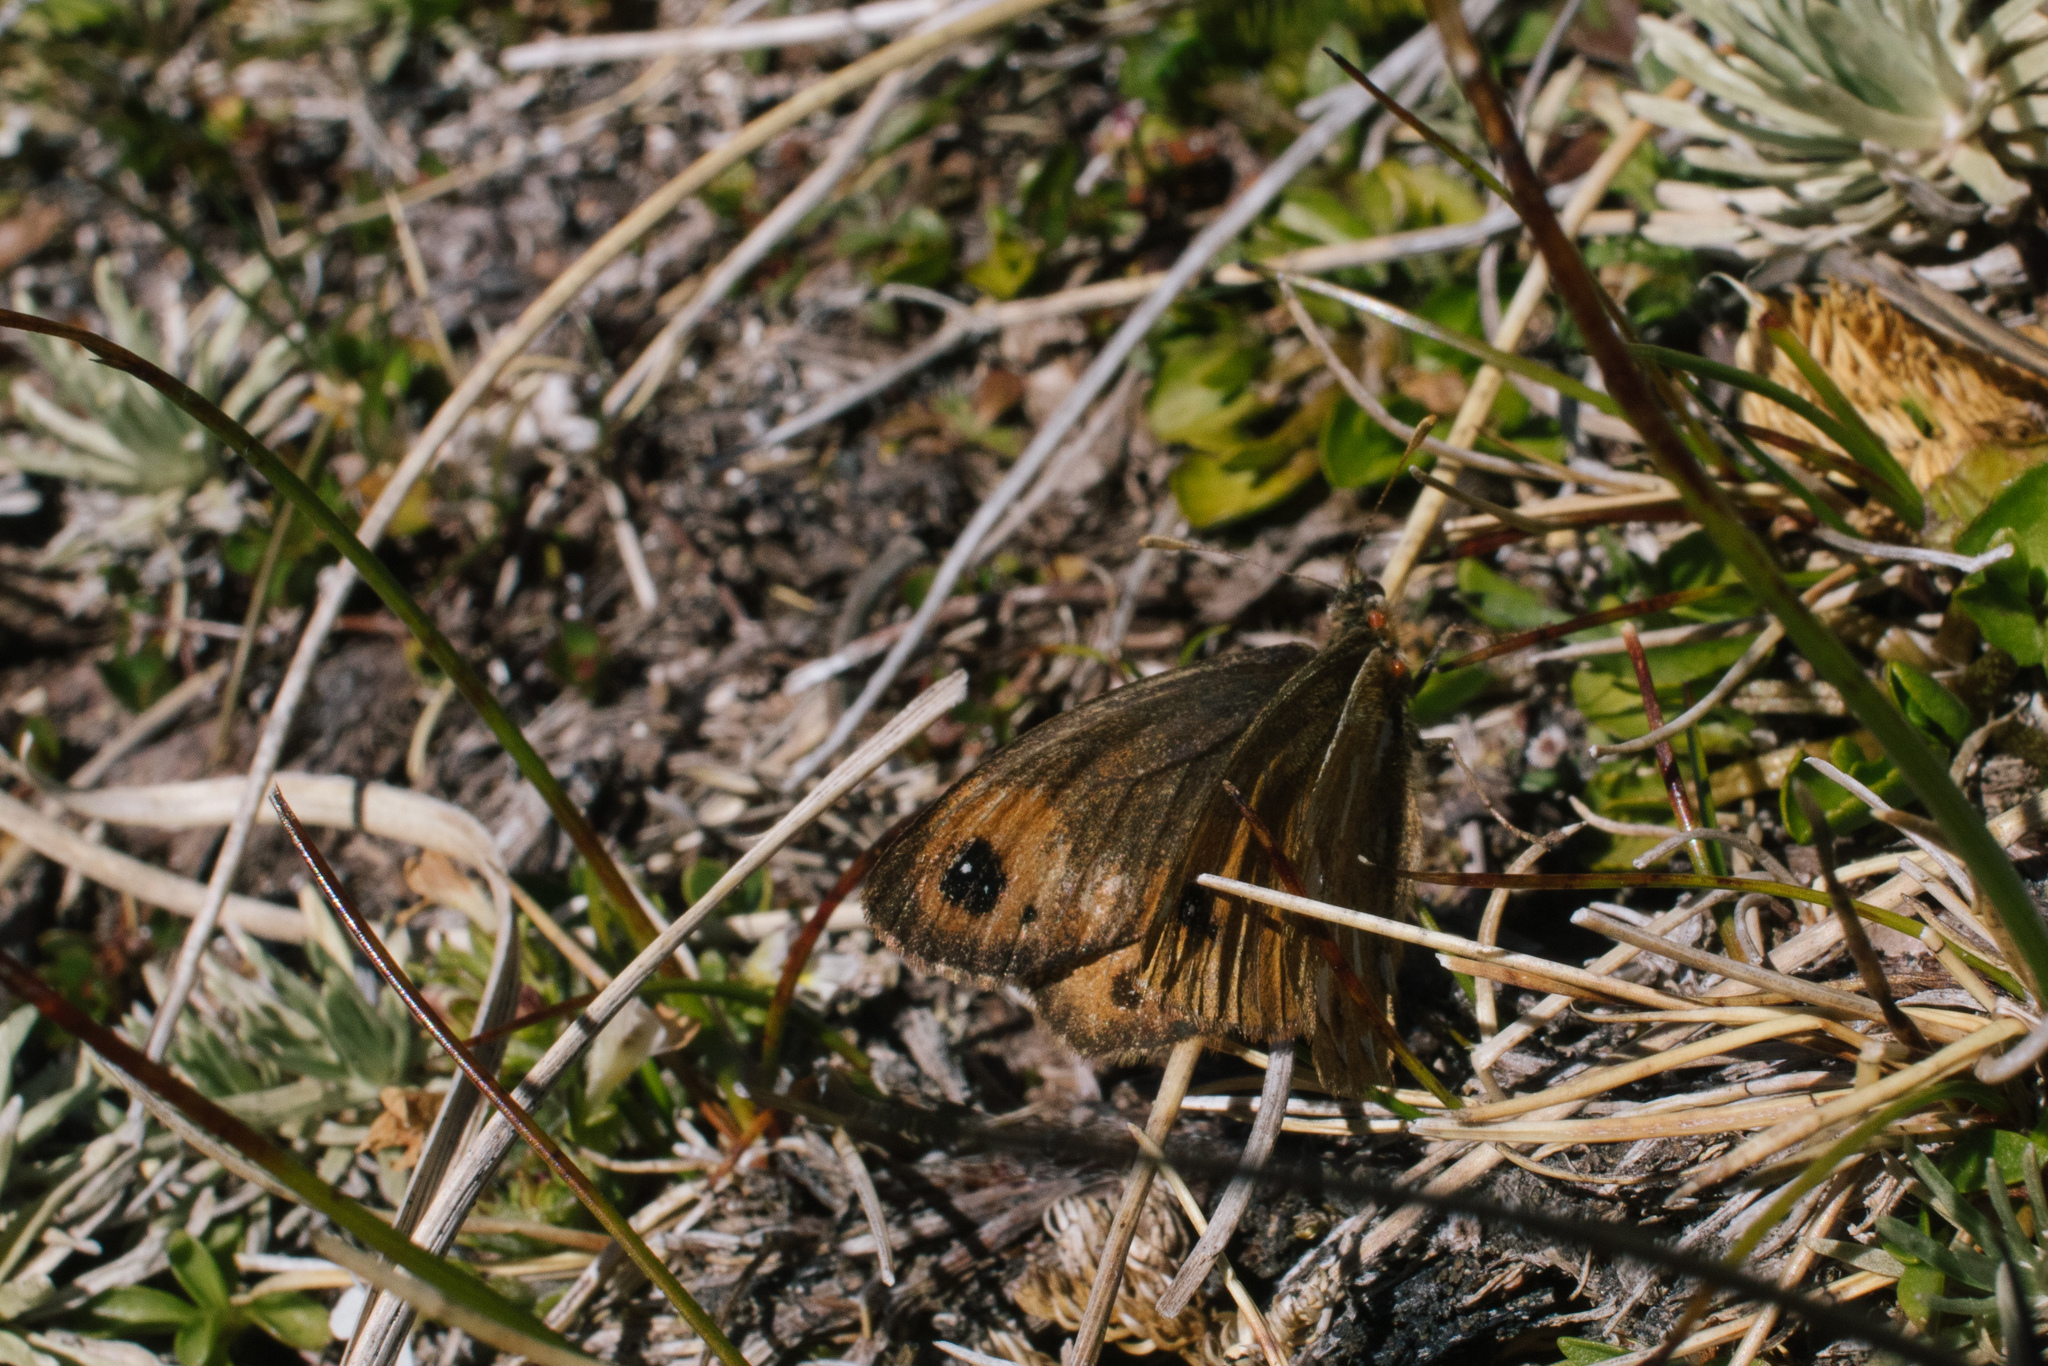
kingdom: Animalia
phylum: Arthropoda
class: Insecta
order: Lepidoptera
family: Nymphalidae
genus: Erebiola
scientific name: Erebiola butleri
